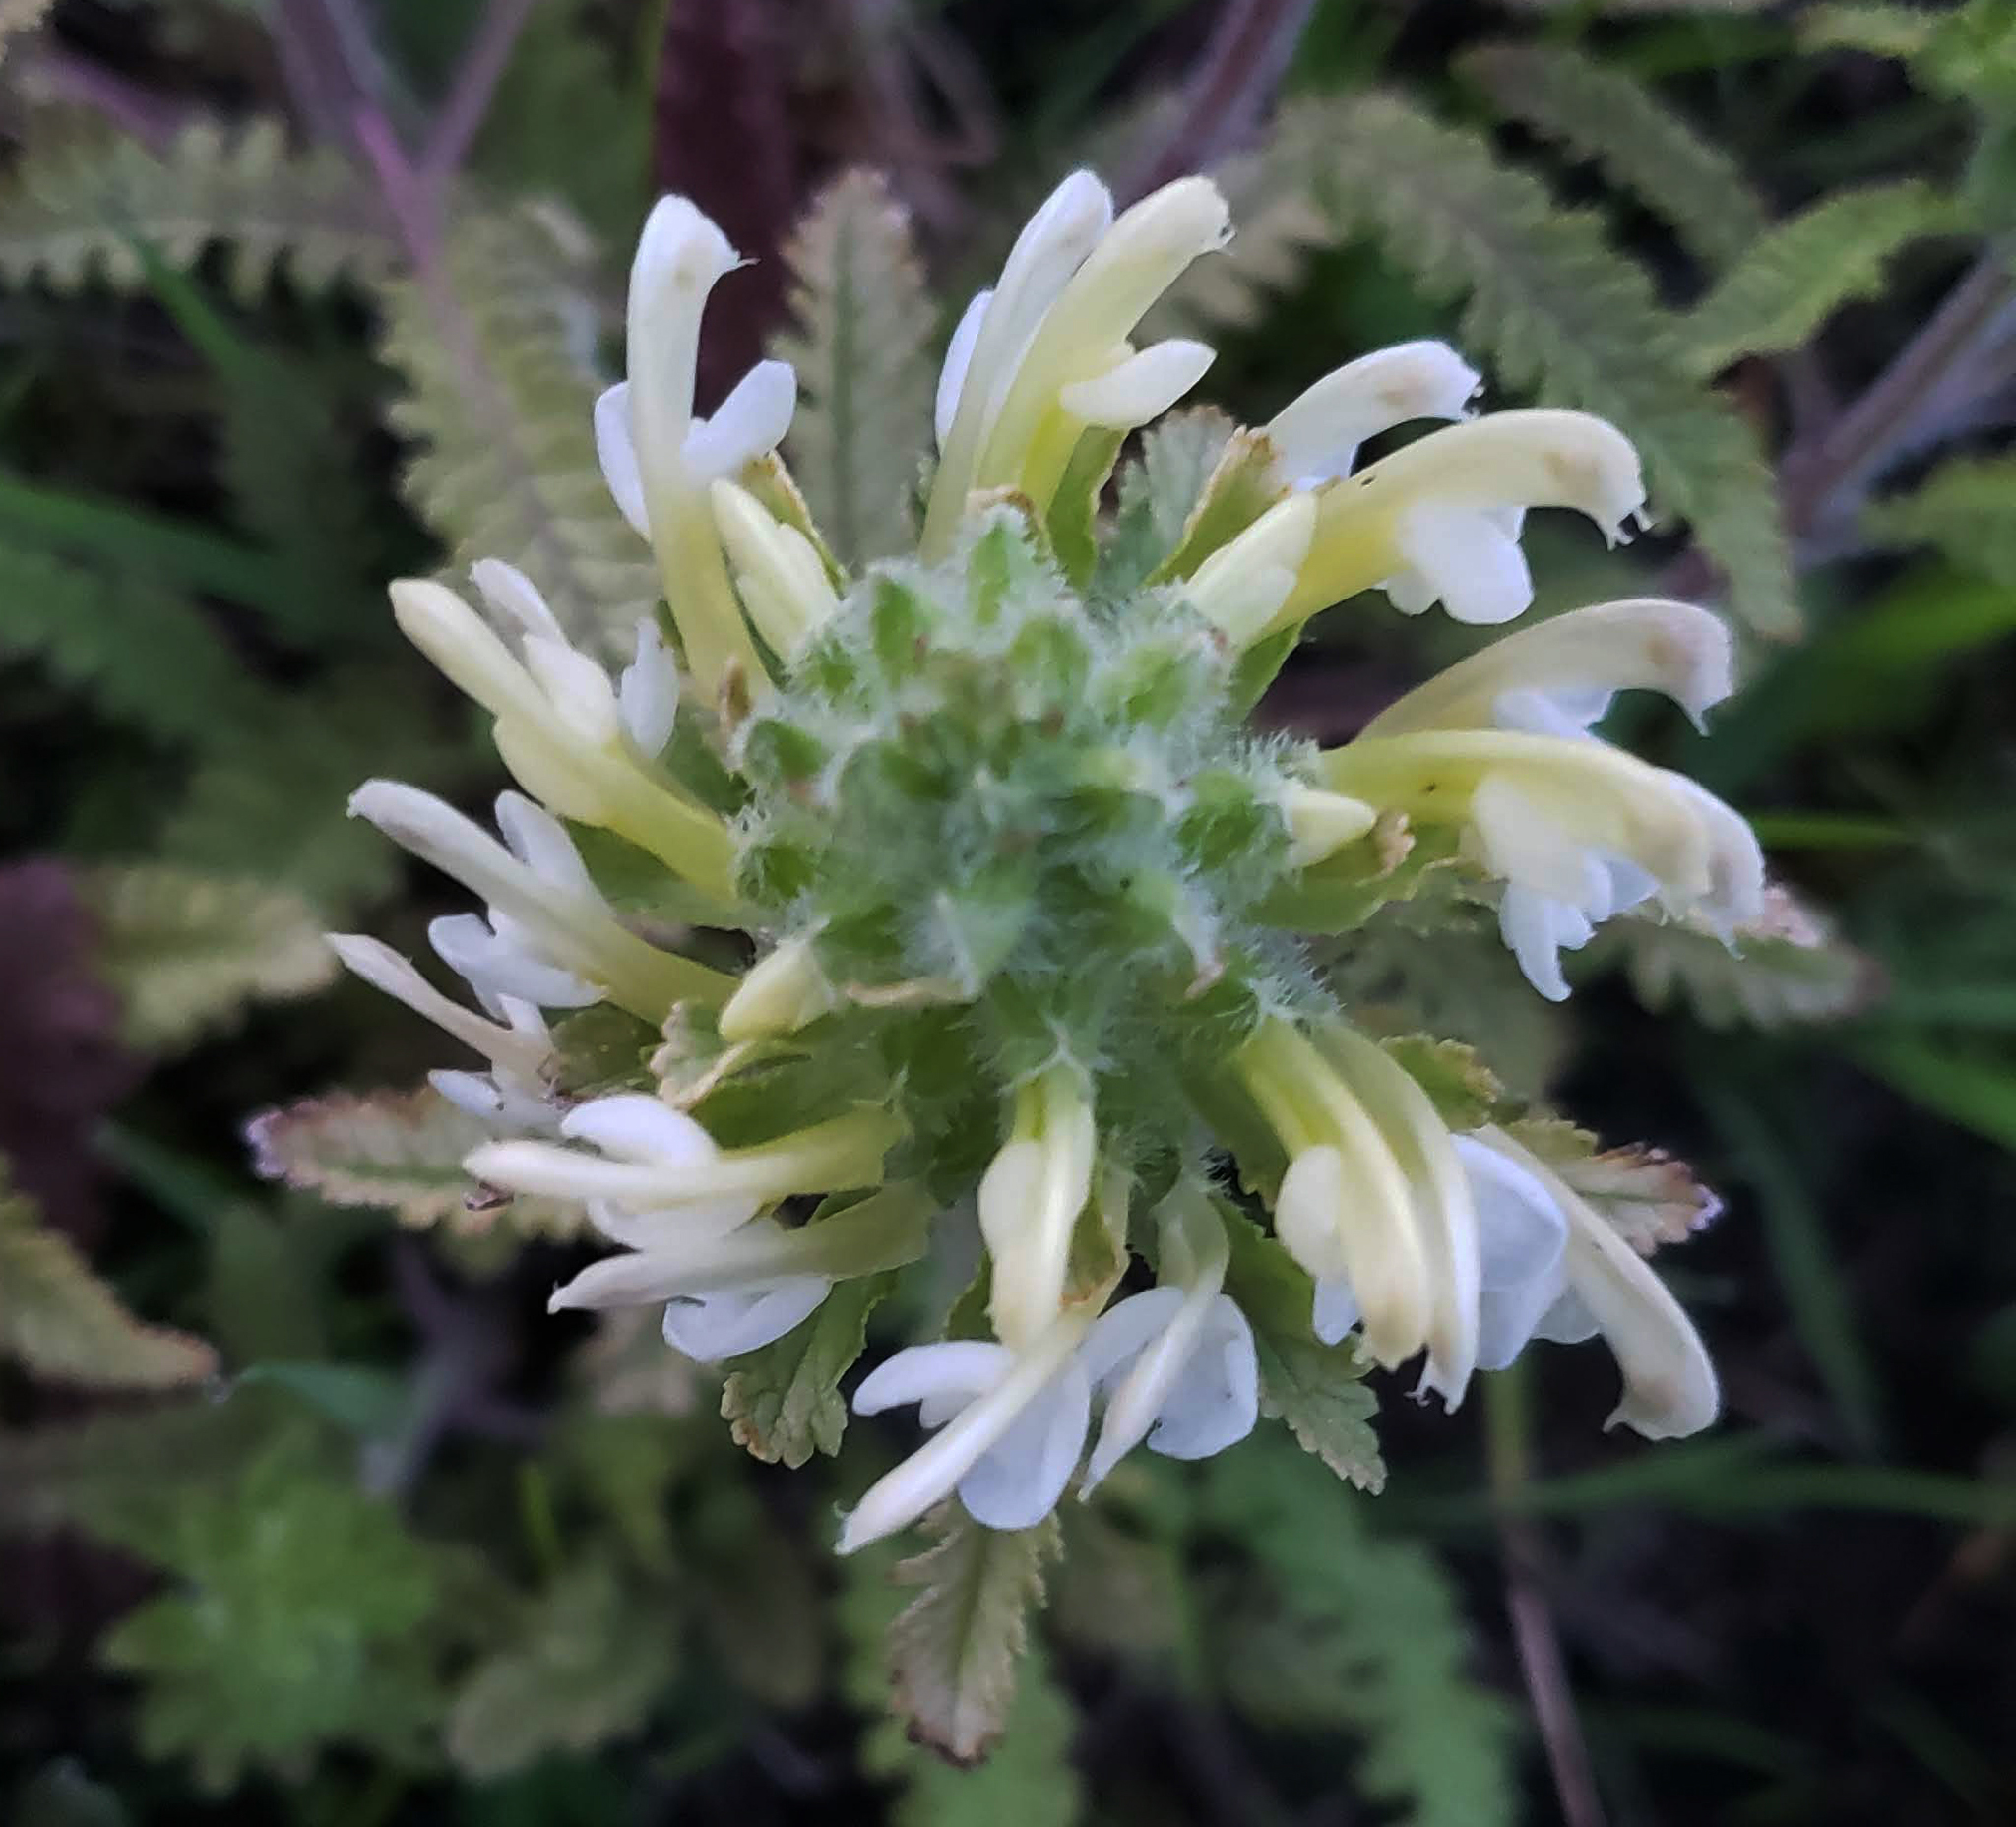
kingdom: Plantae
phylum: Tracheophyta
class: Magnoliopsida
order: Lamiales
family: Orobanchaceae
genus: Pedicularis
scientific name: Pedicularis canadensis
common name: Early lousewort
